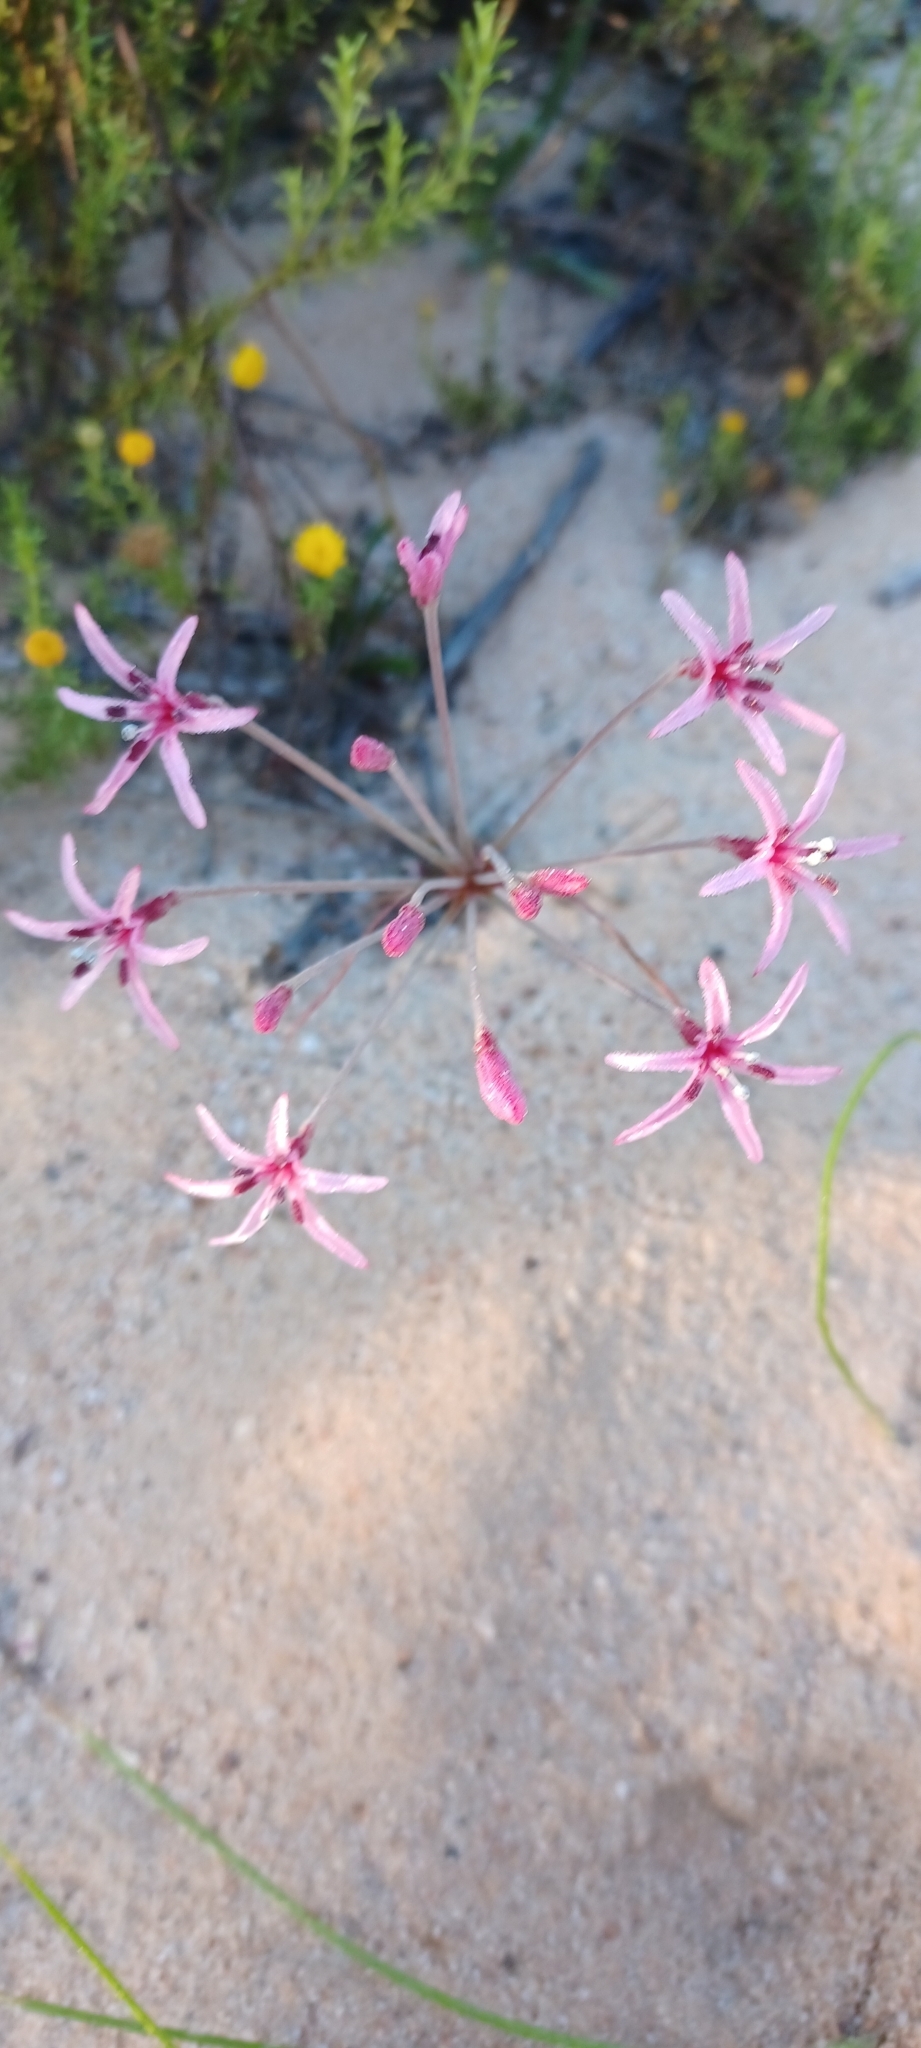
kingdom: Plantae
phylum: Tracheophyta
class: Liliopsida
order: Asparagales
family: Amaryllidaceae
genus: Hessea
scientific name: Hessea stellaris
